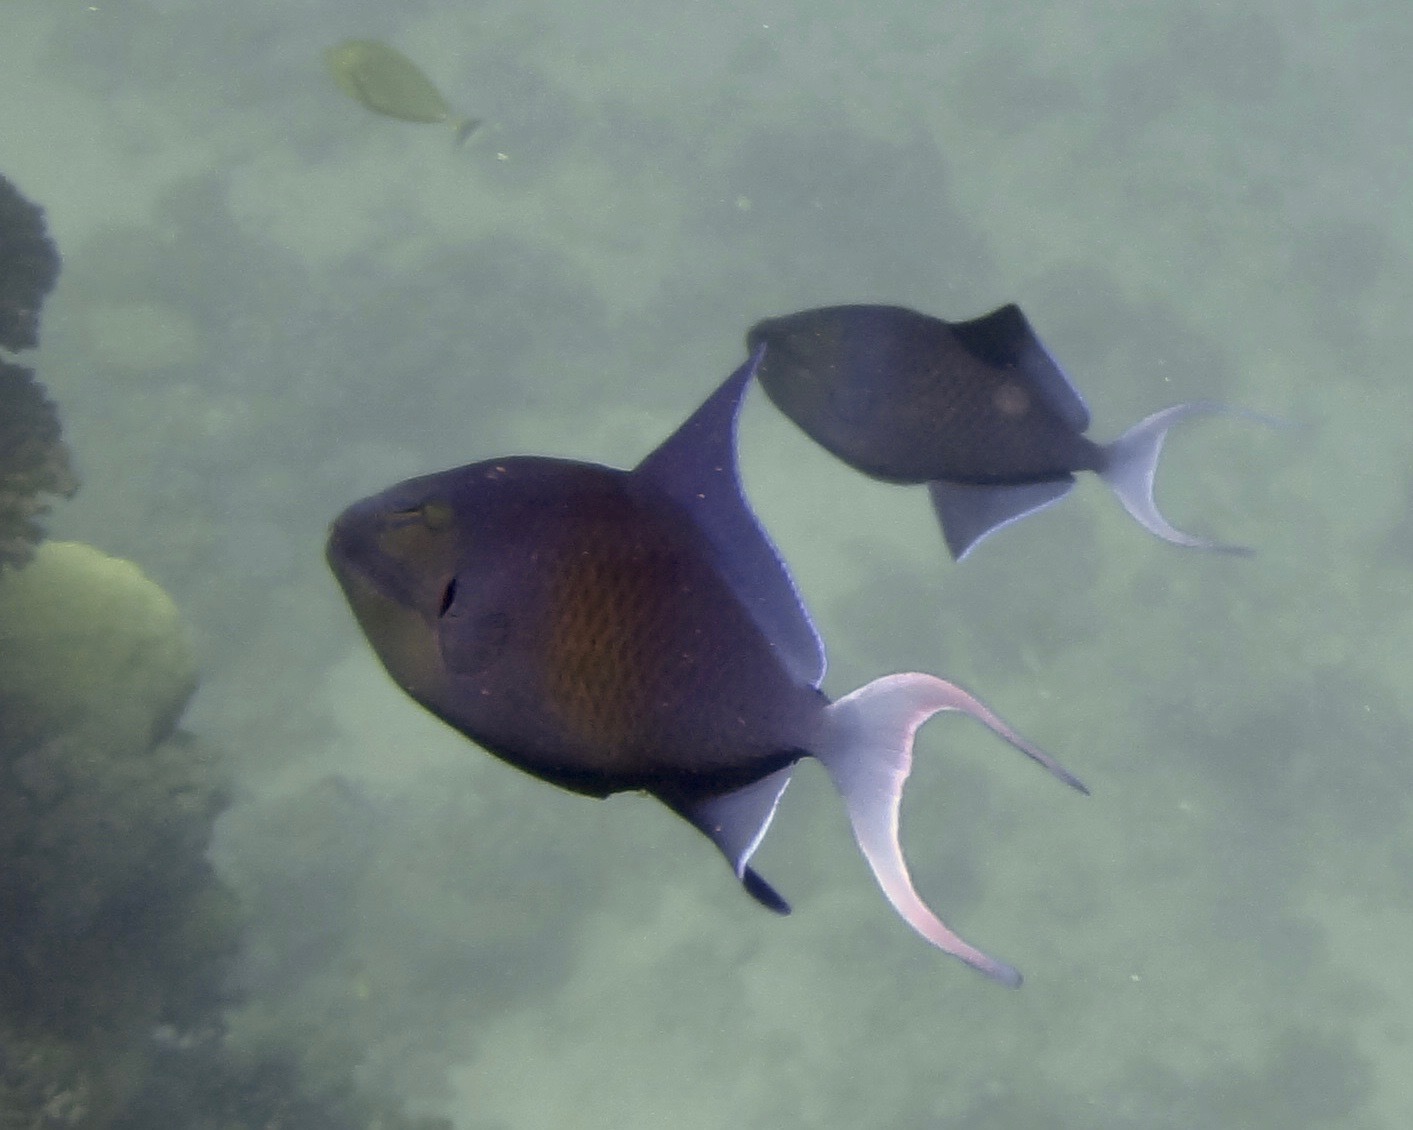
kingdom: Animalia
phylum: Chordata
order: Tetraodontiformes
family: Balistidae
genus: Odonus
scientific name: Odonus niger
